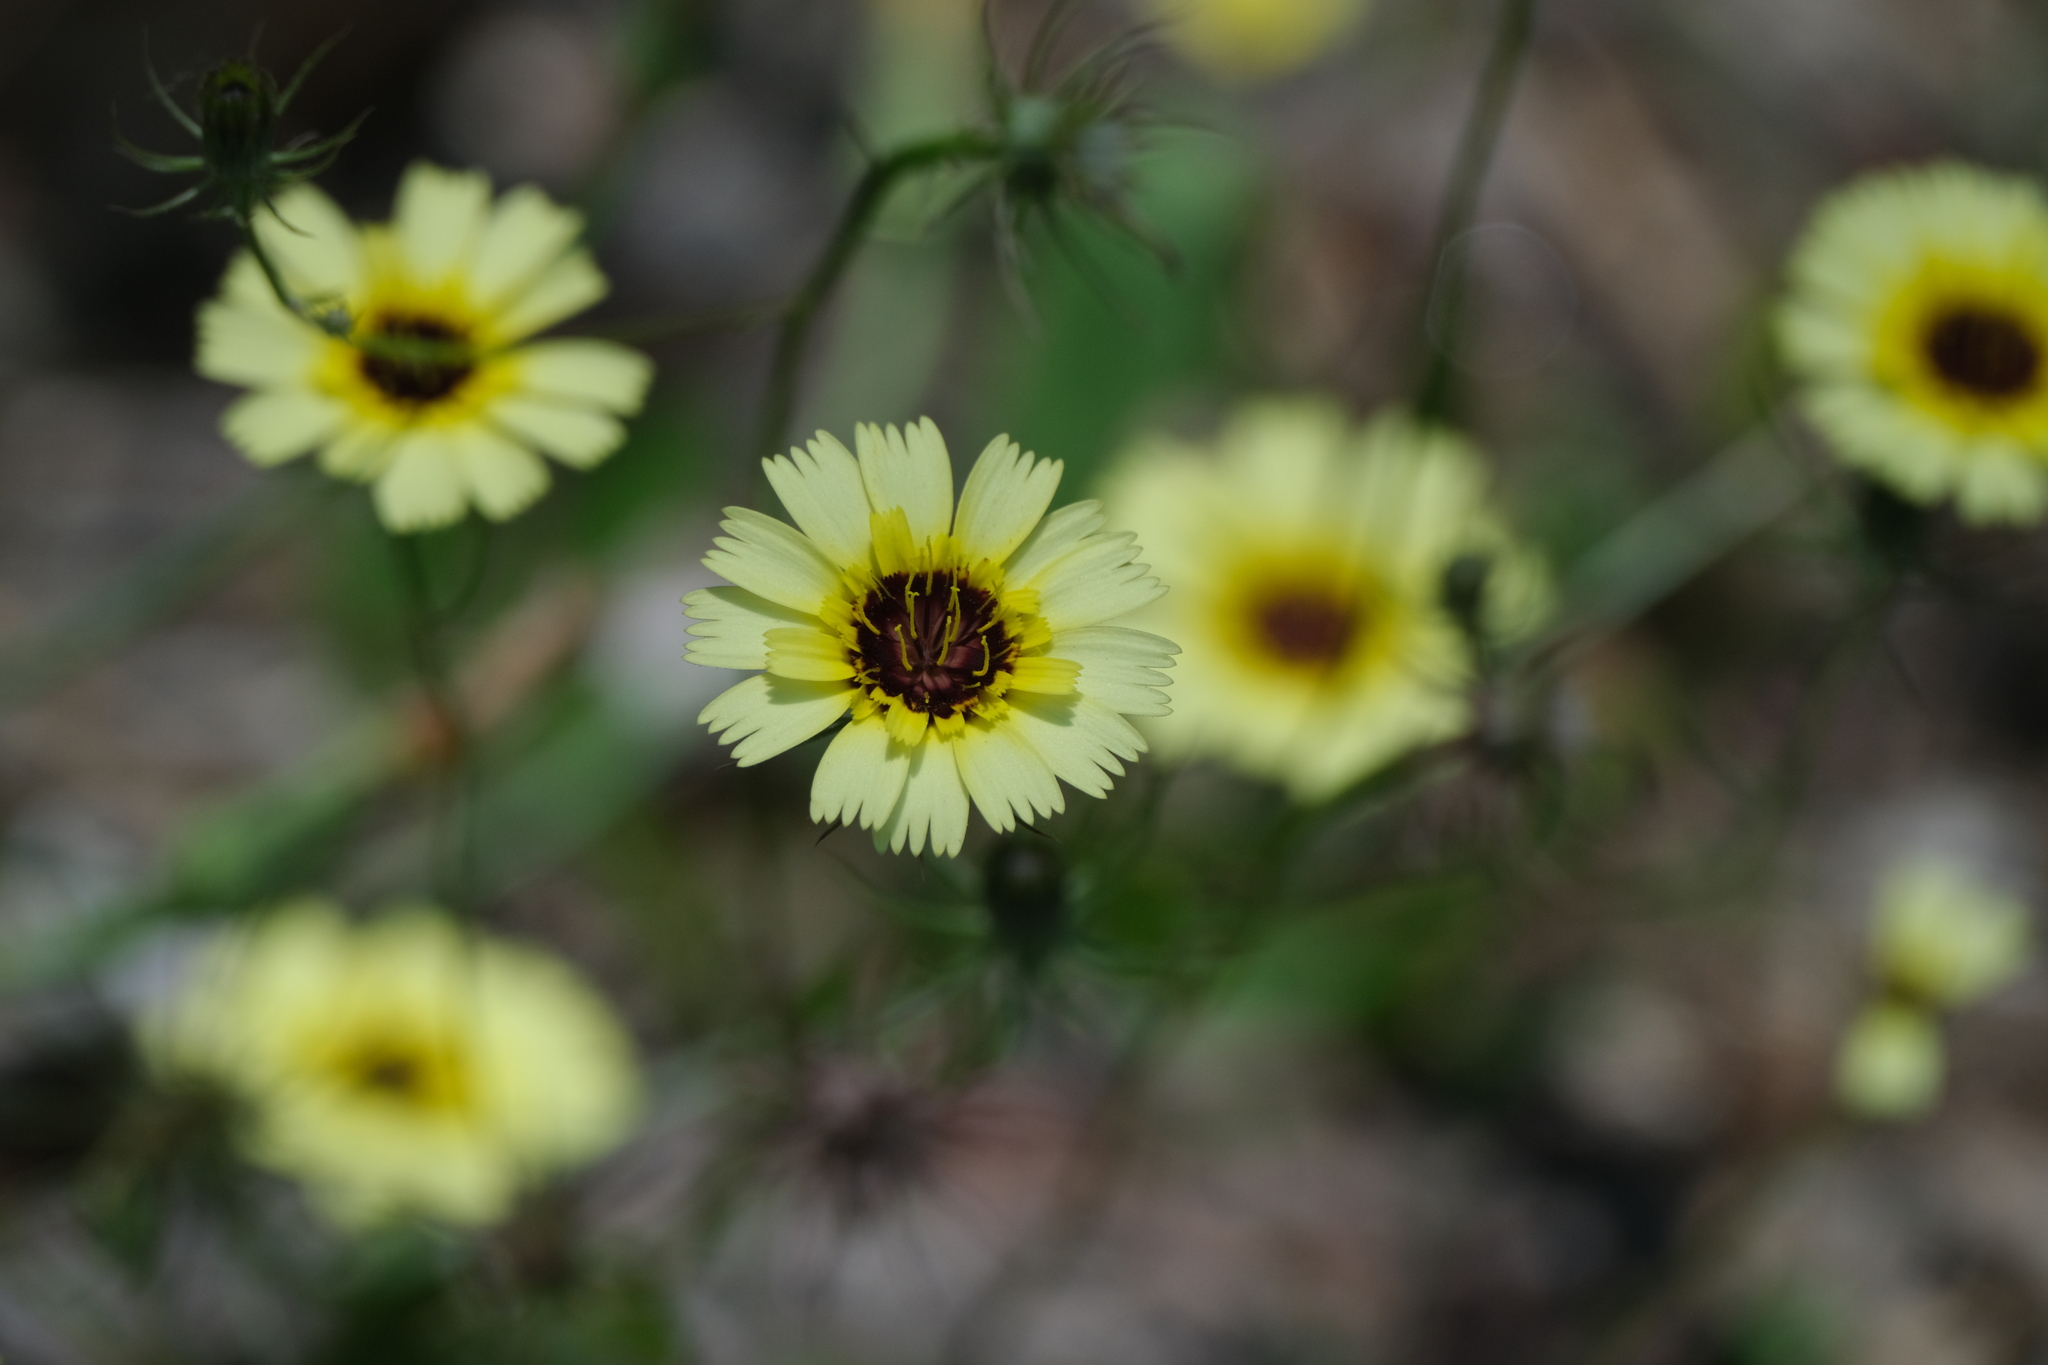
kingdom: Plantae
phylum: Tracheophyta
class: Magnoliopsida
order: Asterales
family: Asteraceae
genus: Tolpis
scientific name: Tolpis barbata
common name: Yellow hawkweed
